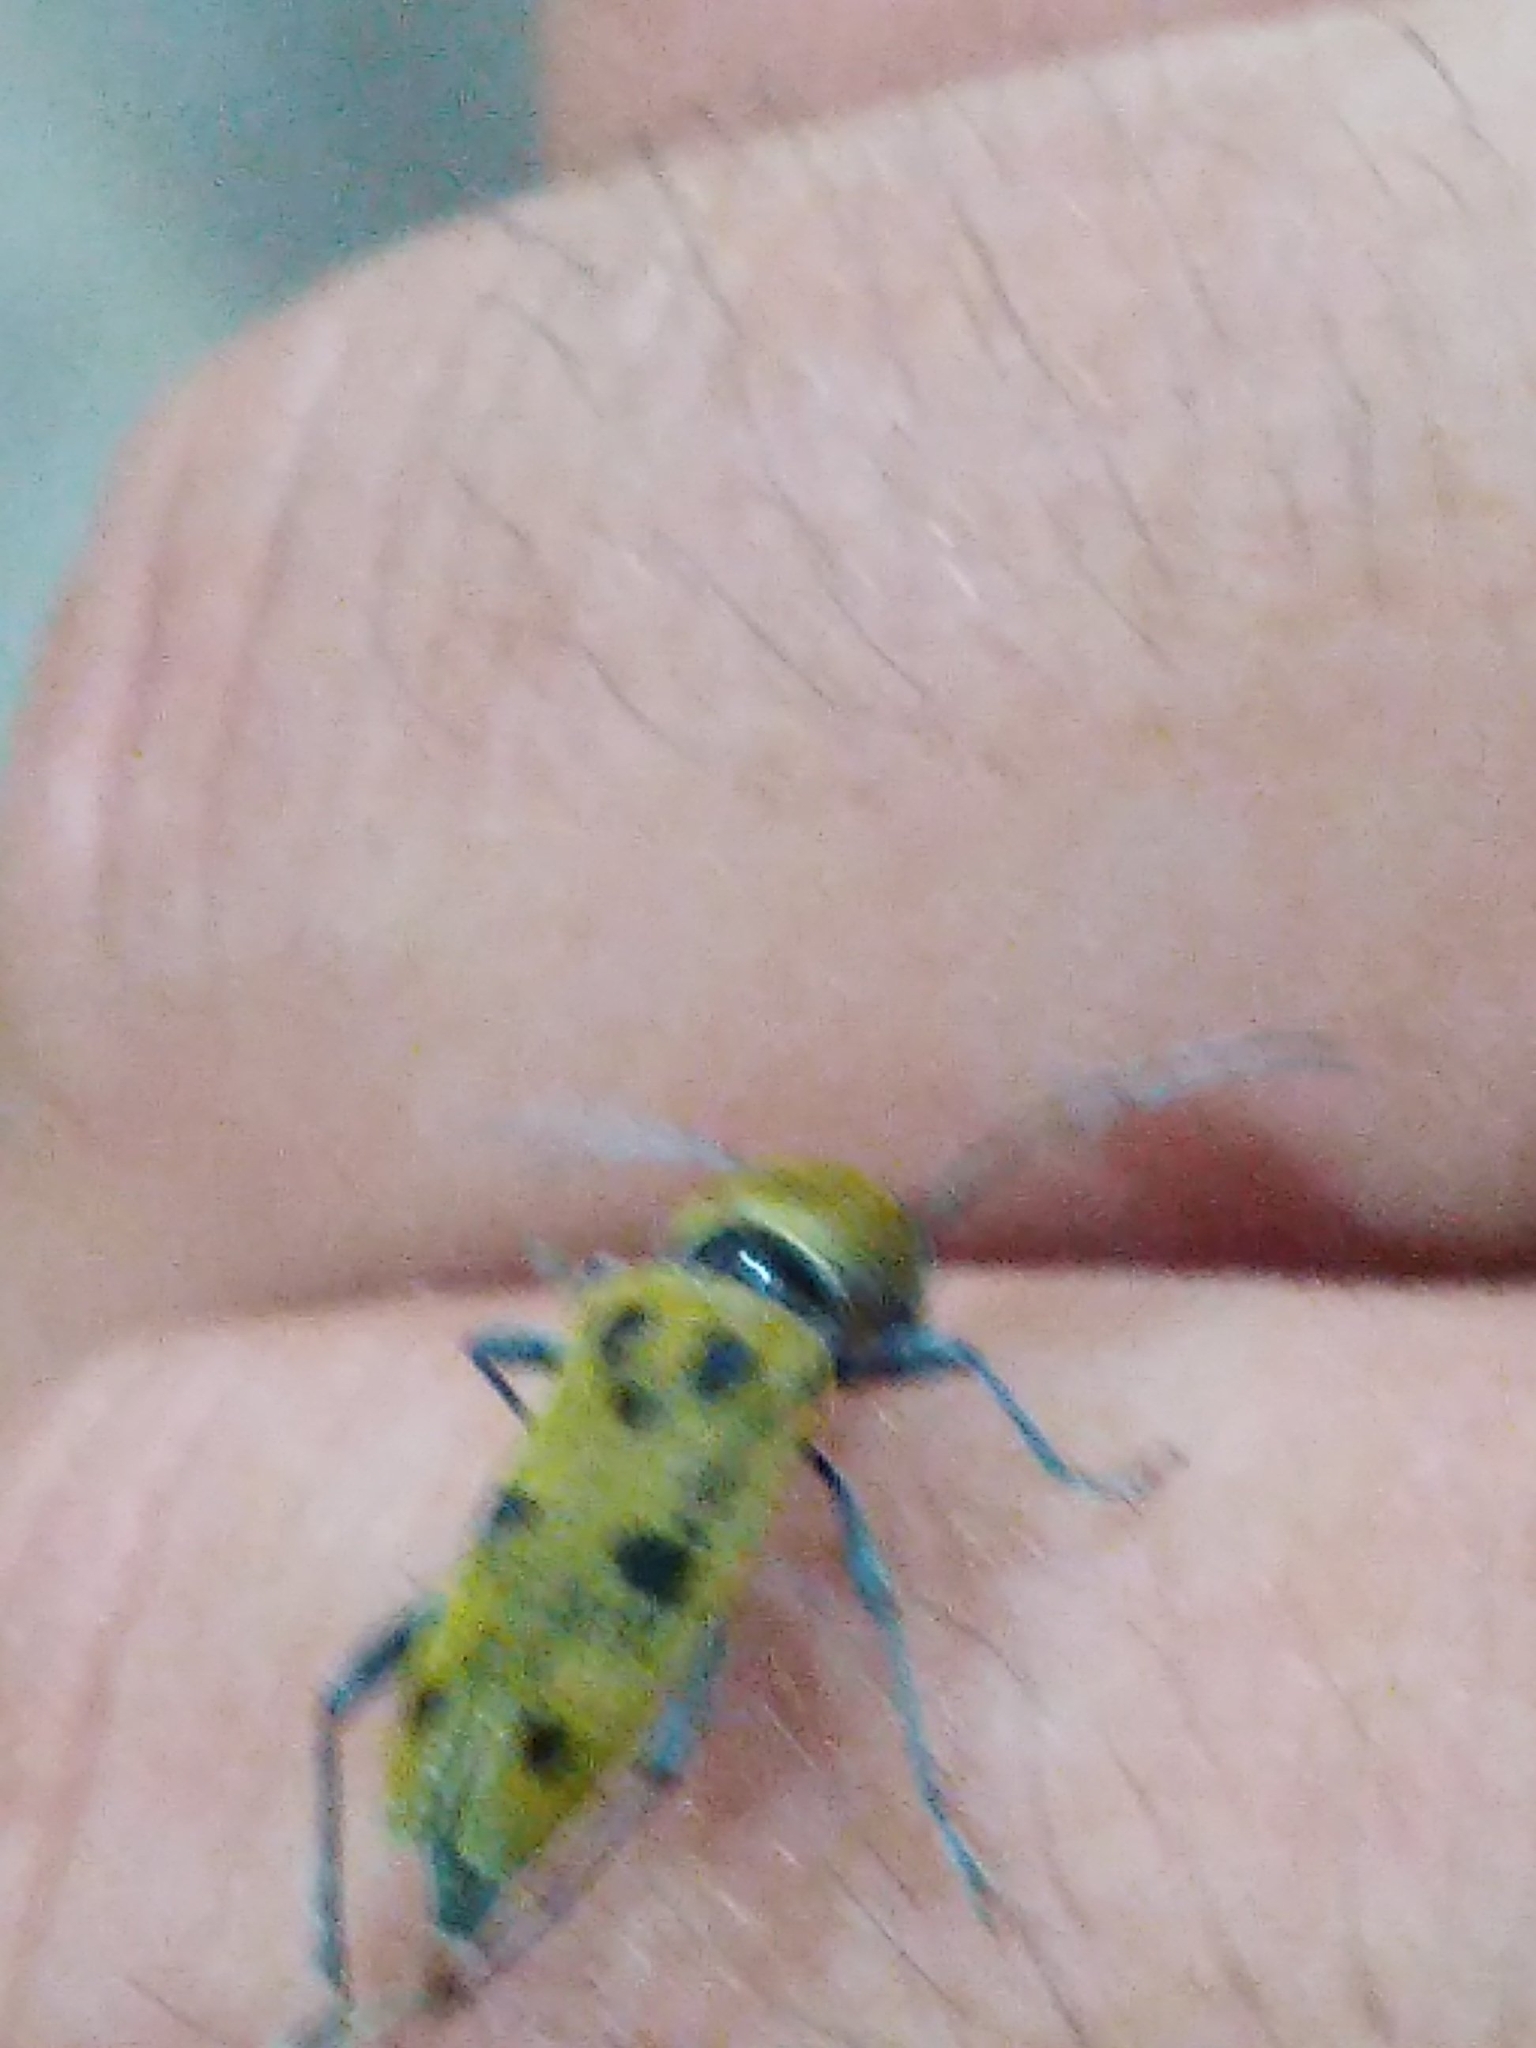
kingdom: Animalia
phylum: Arthropoda
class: Insecta
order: Coleoptera
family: Cerambycidae
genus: Chlorophorus
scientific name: Chlorophorus glabromaculatus
